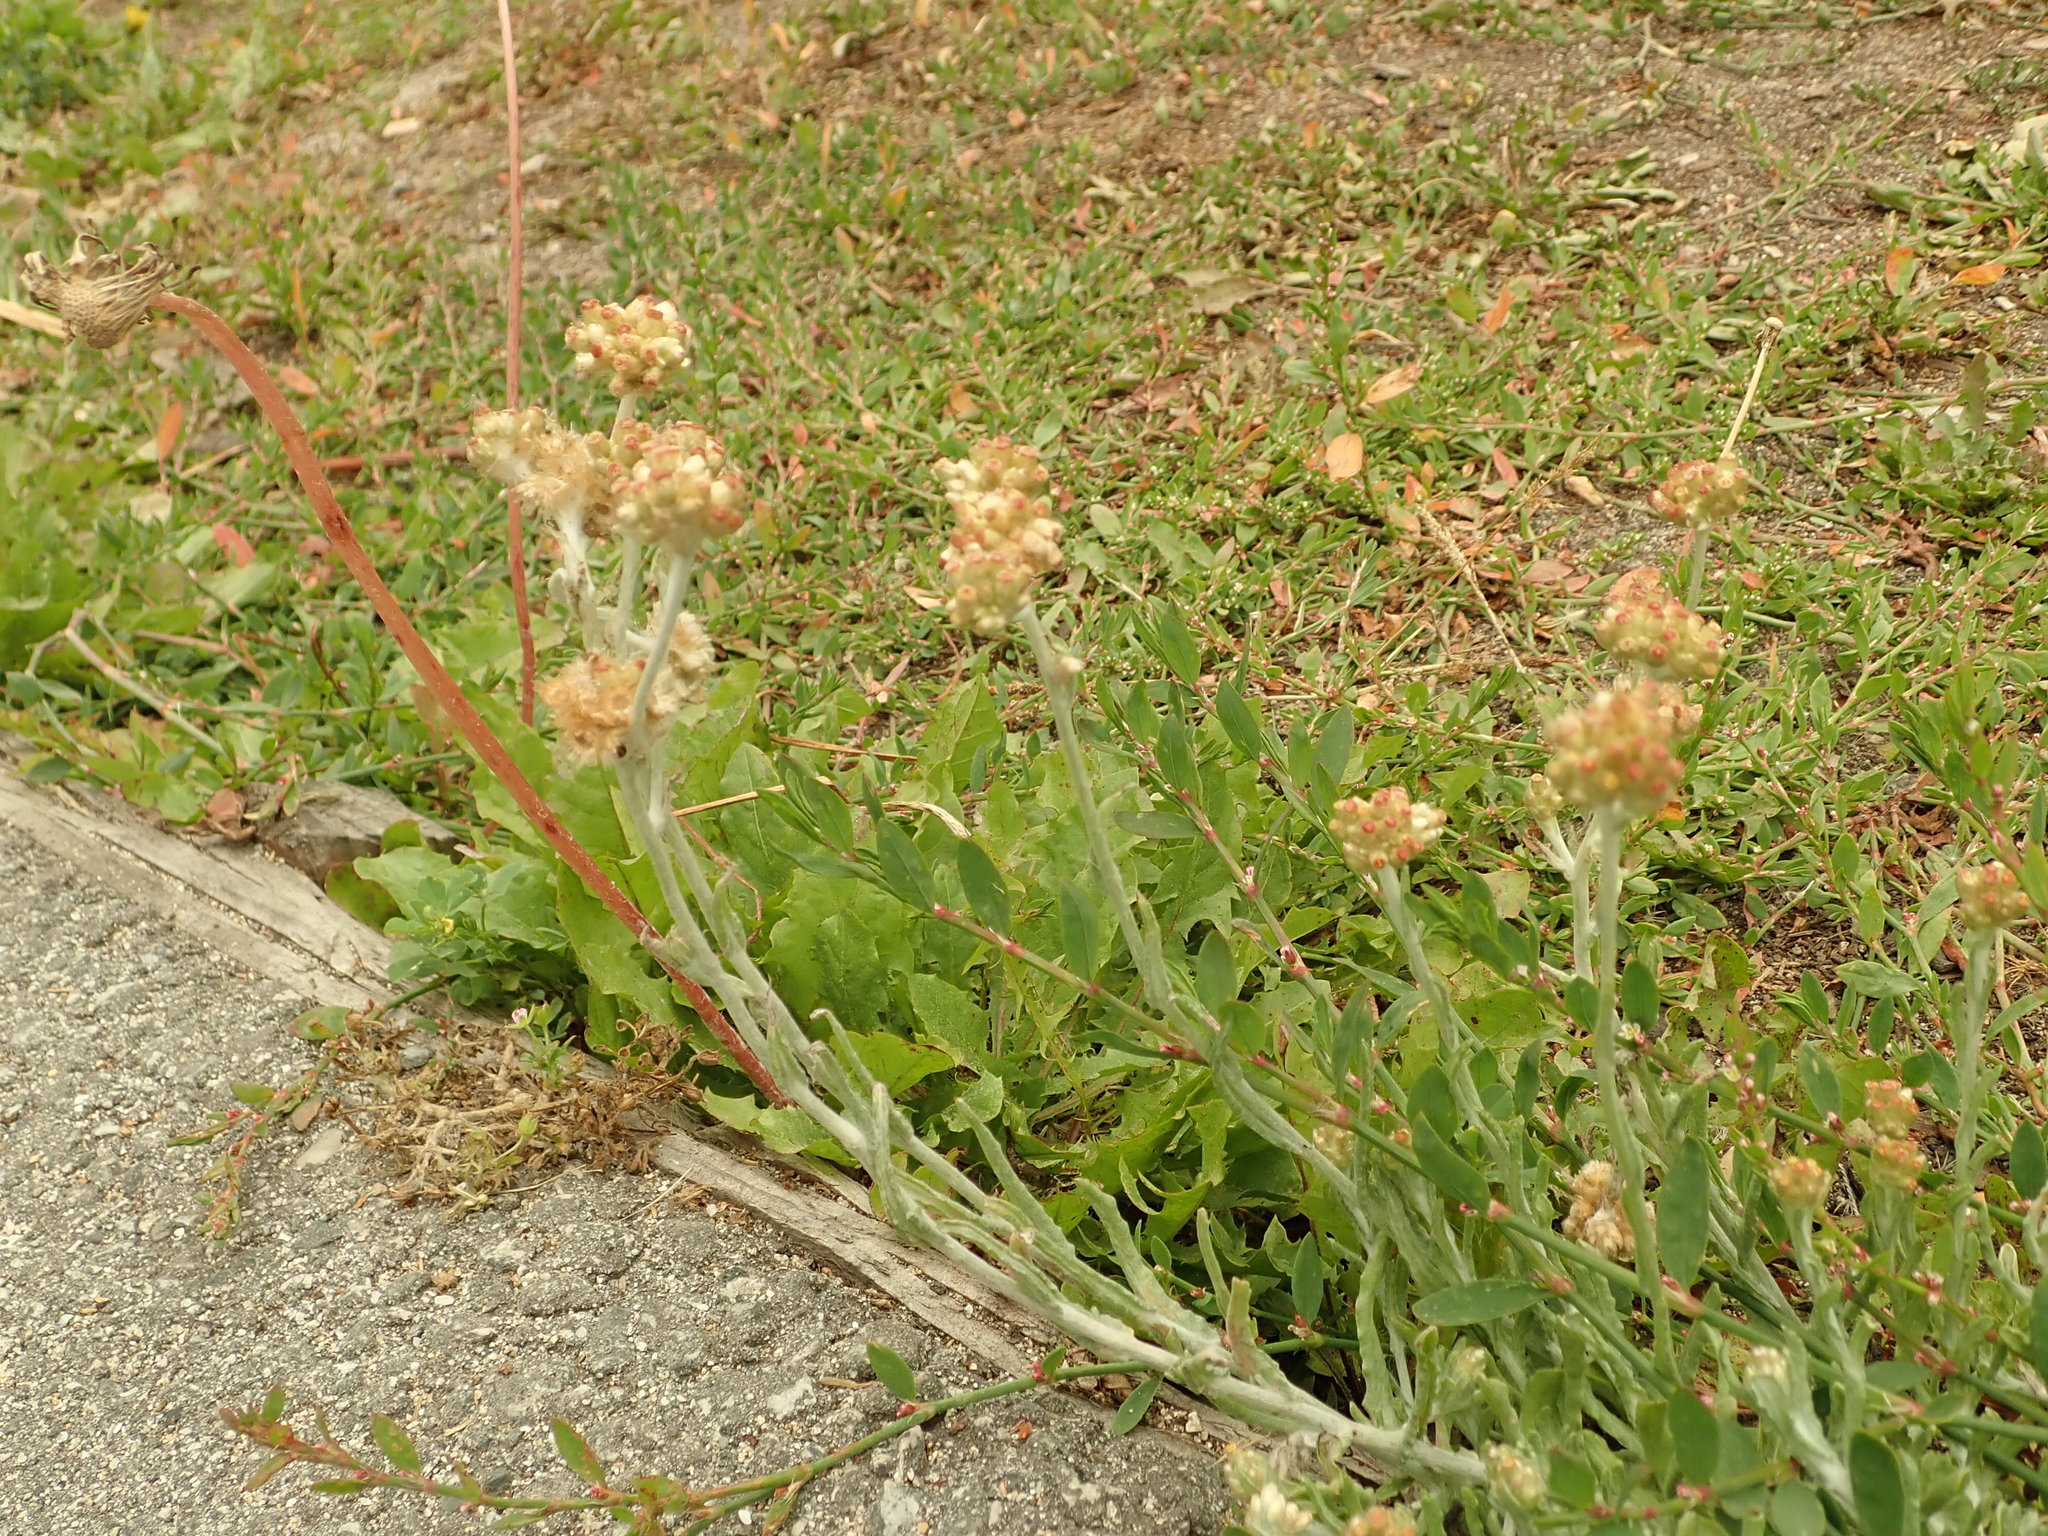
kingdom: Plantae
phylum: Tracheophyta
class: Magnoliopsida
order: Asterales
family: Asteraceae
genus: Helichrysum
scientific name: Helichrysum luteoalbum
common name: Daisy
